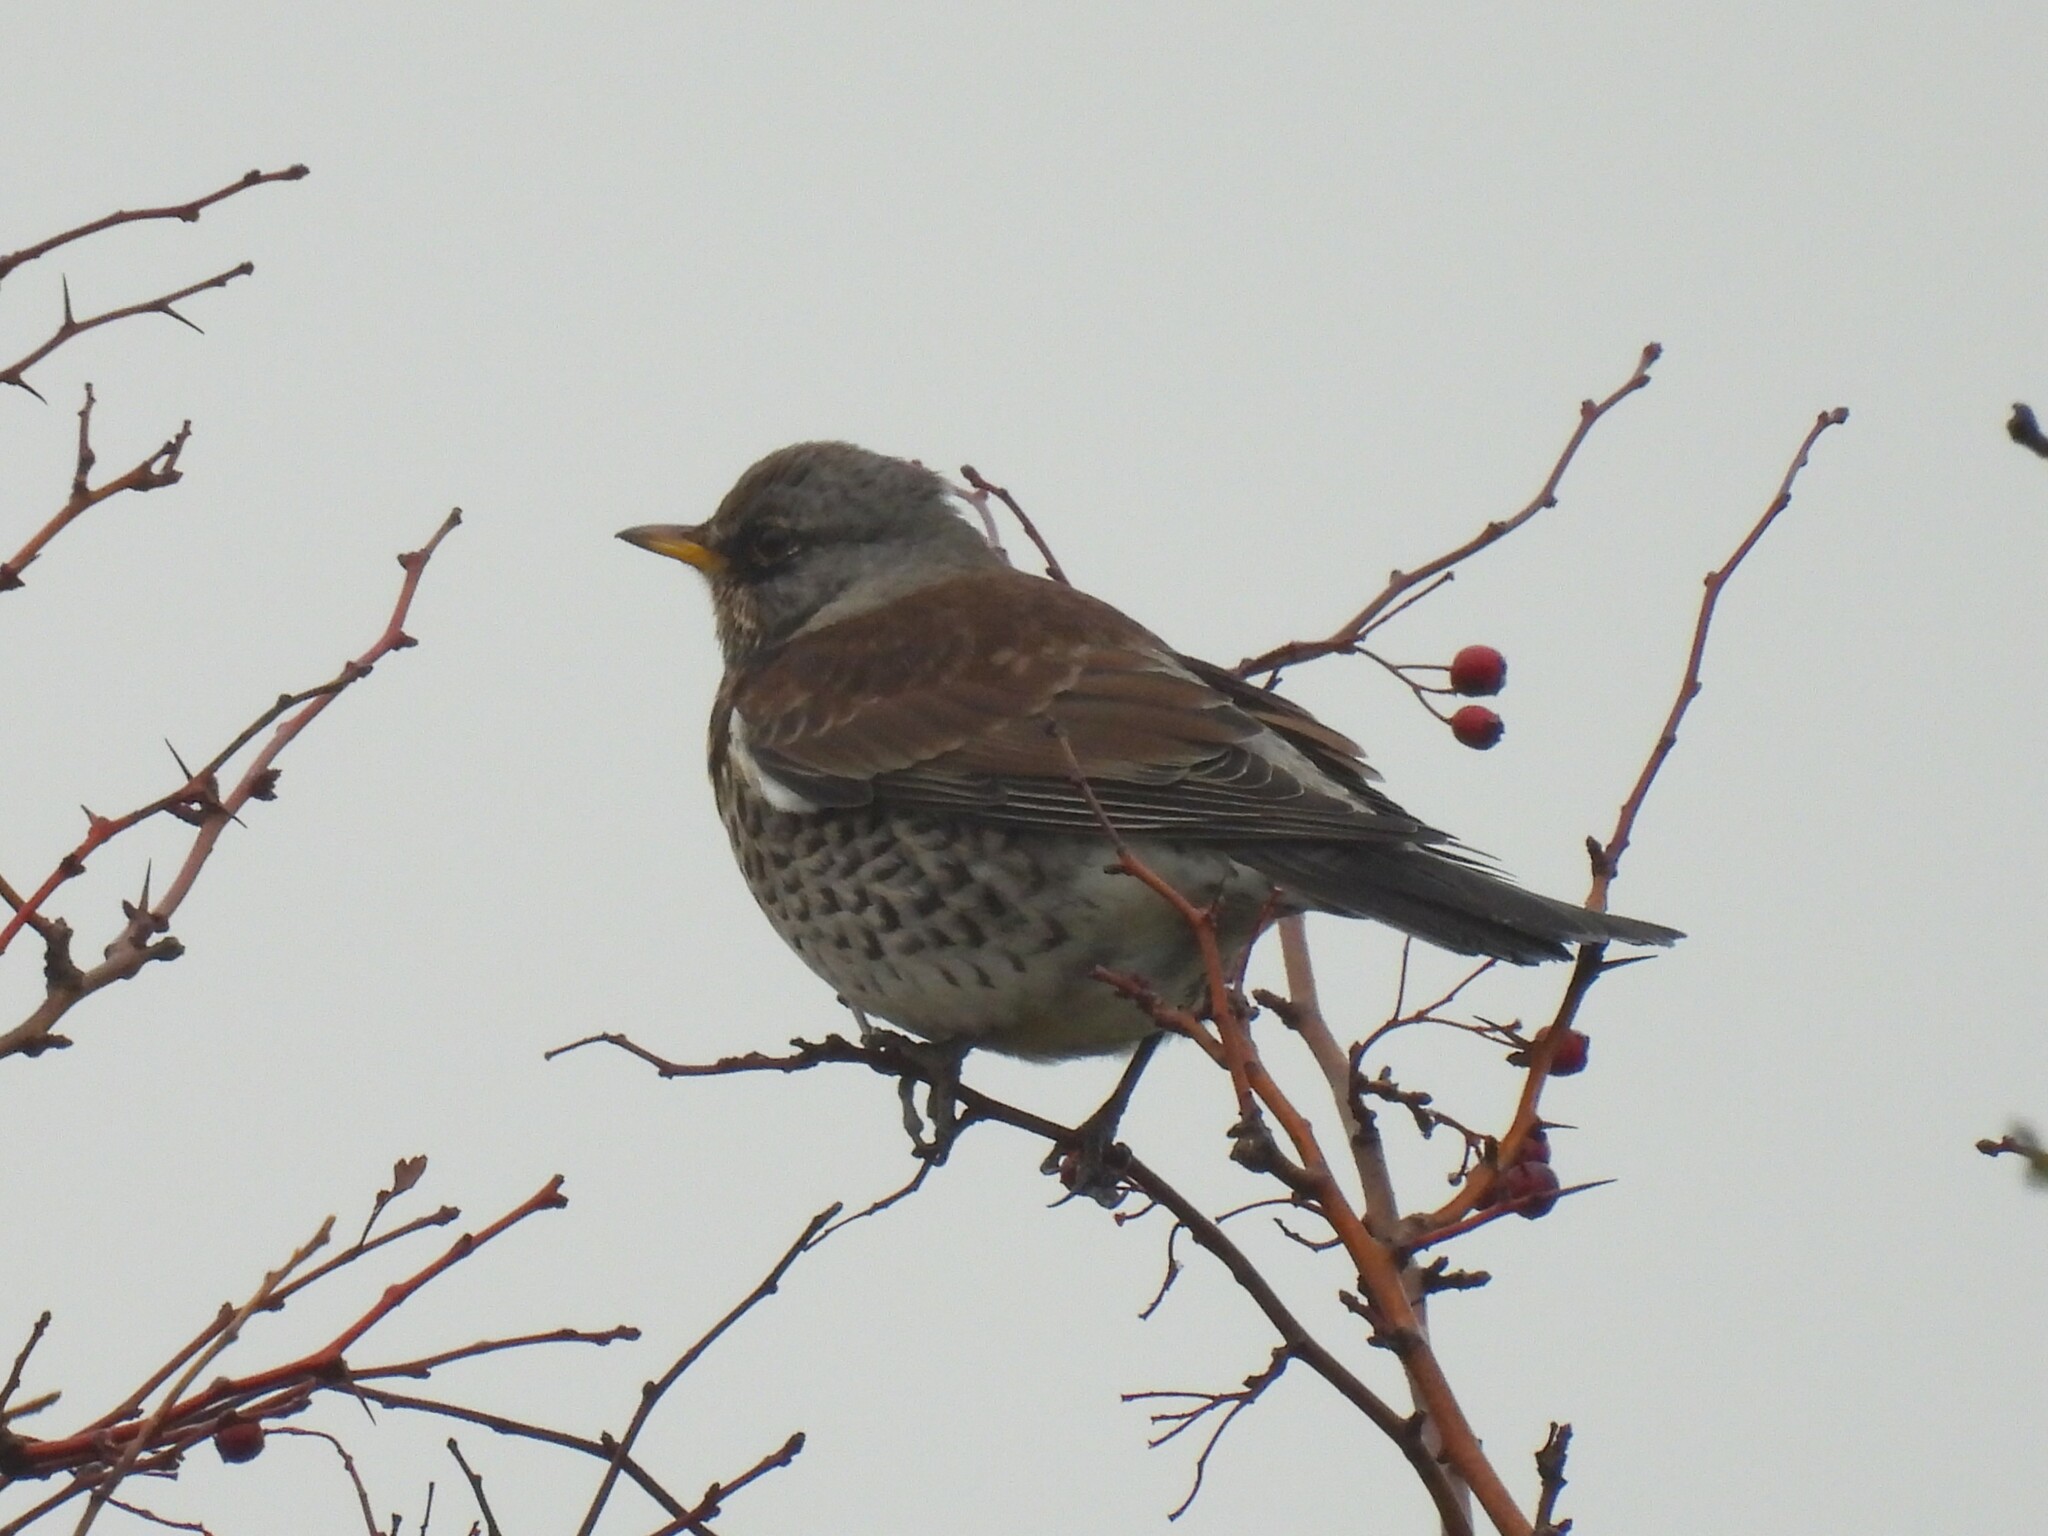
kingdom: Animalia
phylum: Chordata
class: Aves
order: Passeriformes
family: Turdidae
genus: Turdus
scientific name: Turdus pilaris
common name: Fieldfare
